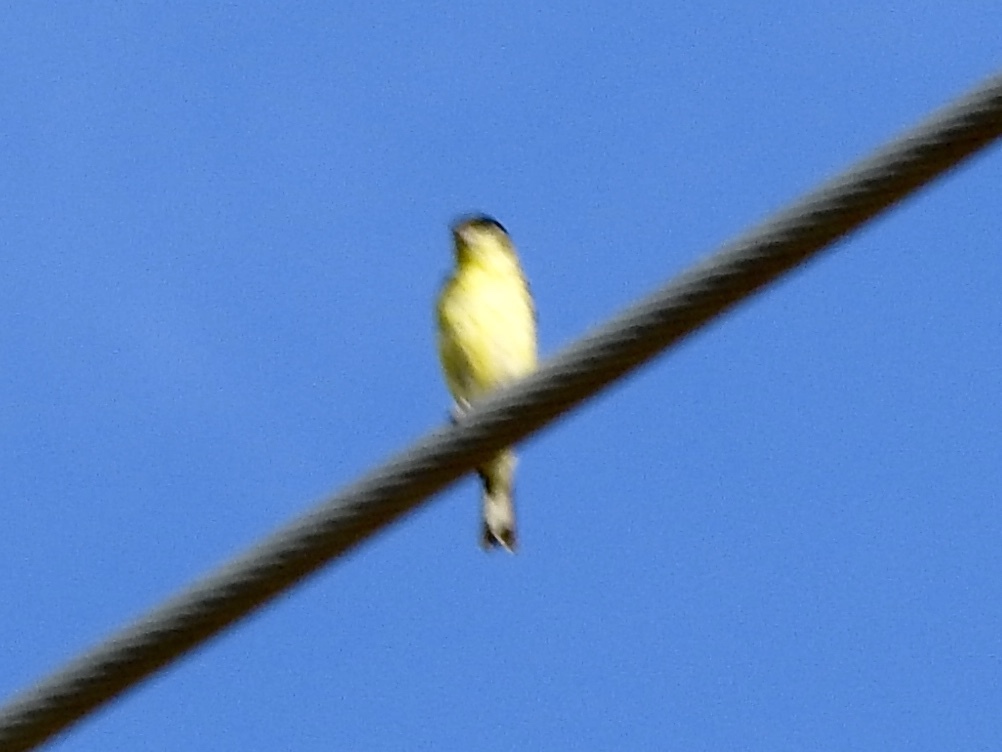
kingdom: Animalia
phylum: Chordata
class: Aves
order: Passeriformes
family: Fringillidae
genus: Spinus
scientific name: Spinus psaltria
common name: Lesser goldfinch
